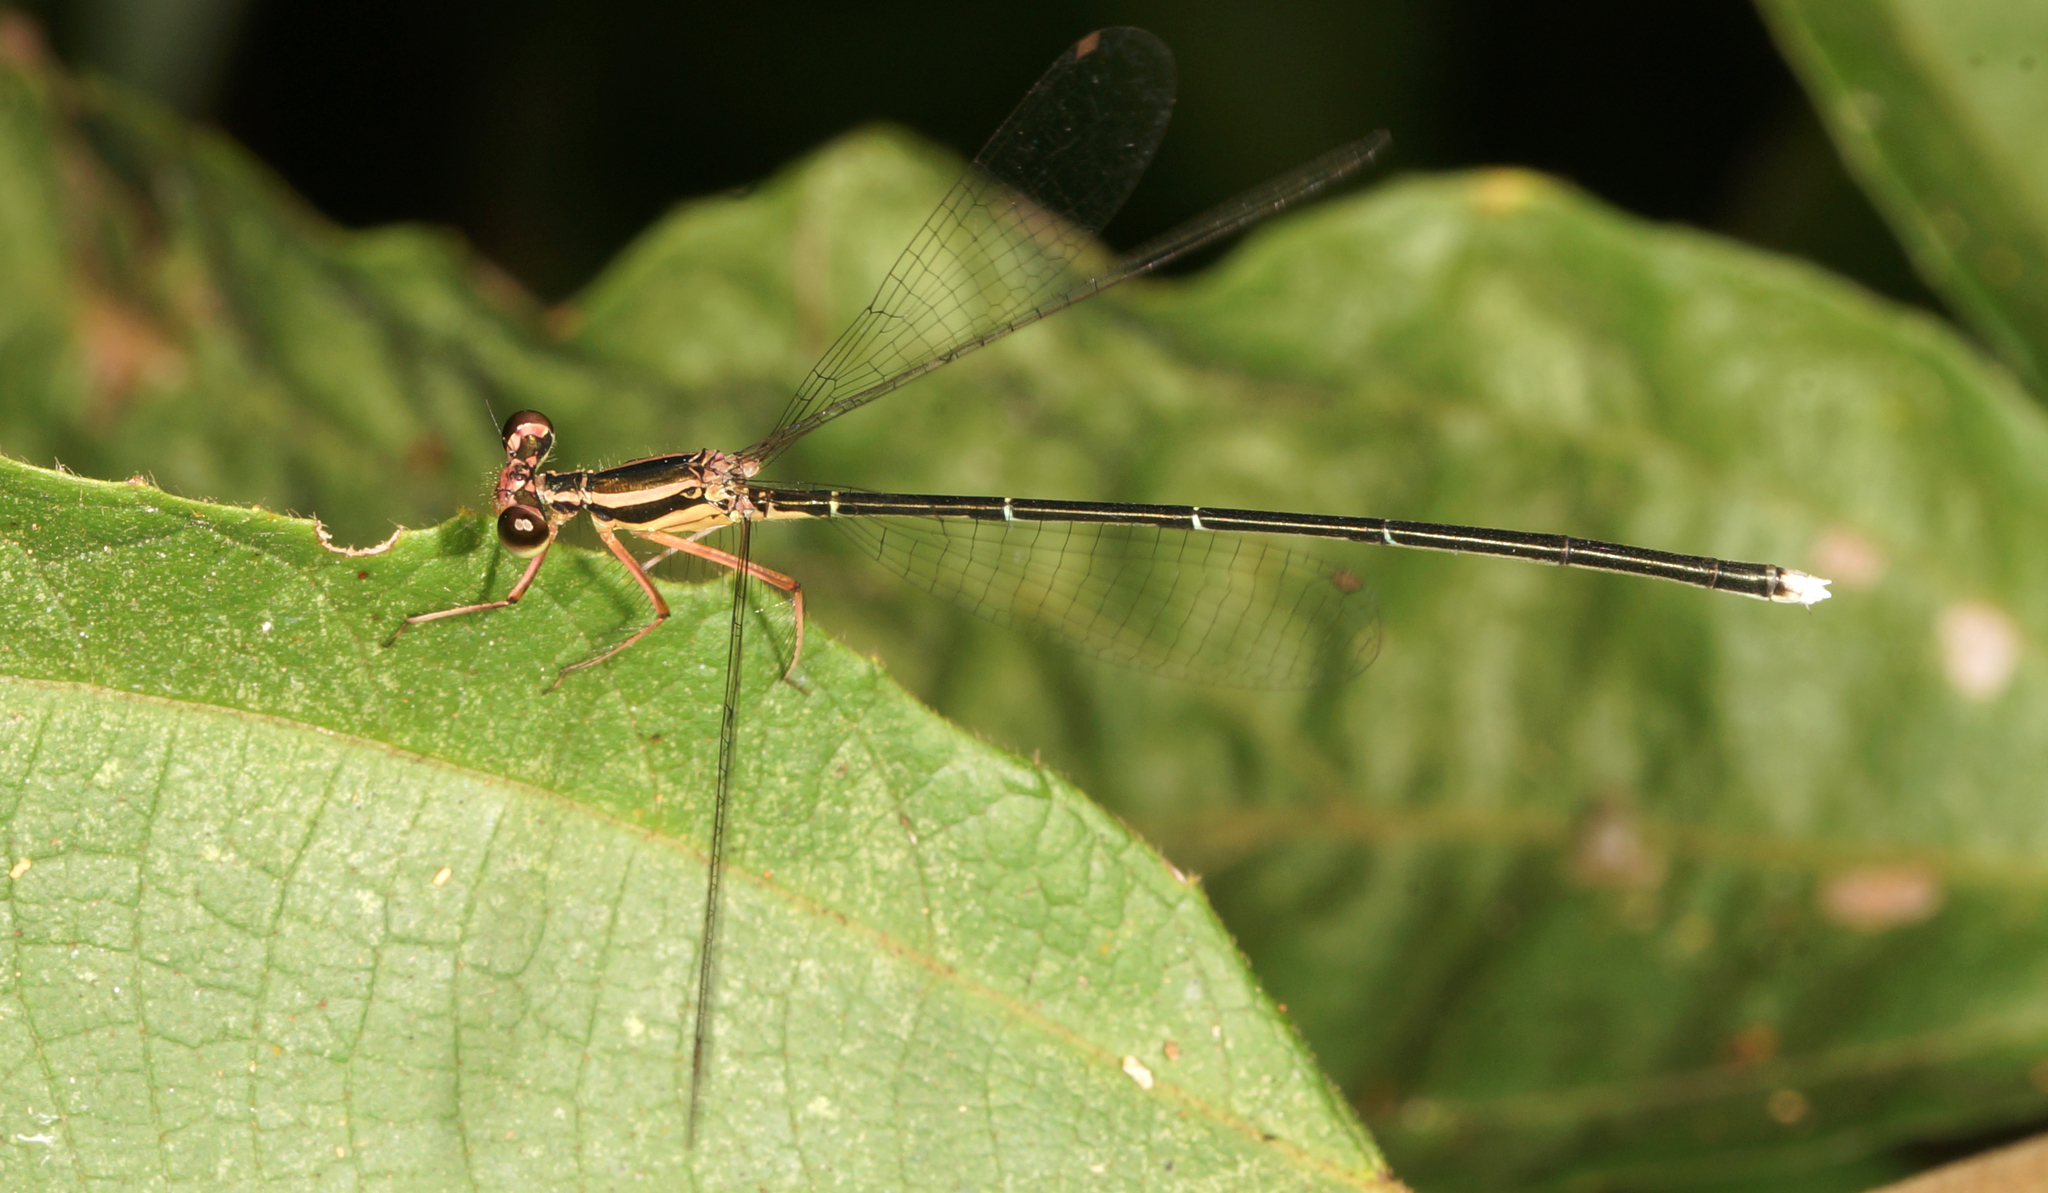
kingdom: Animalia
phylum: Arthropoda
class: Insecta
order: Odonata
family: Platycnemididae
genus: Pseudocopera
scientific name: Pseudocopera ciliata
